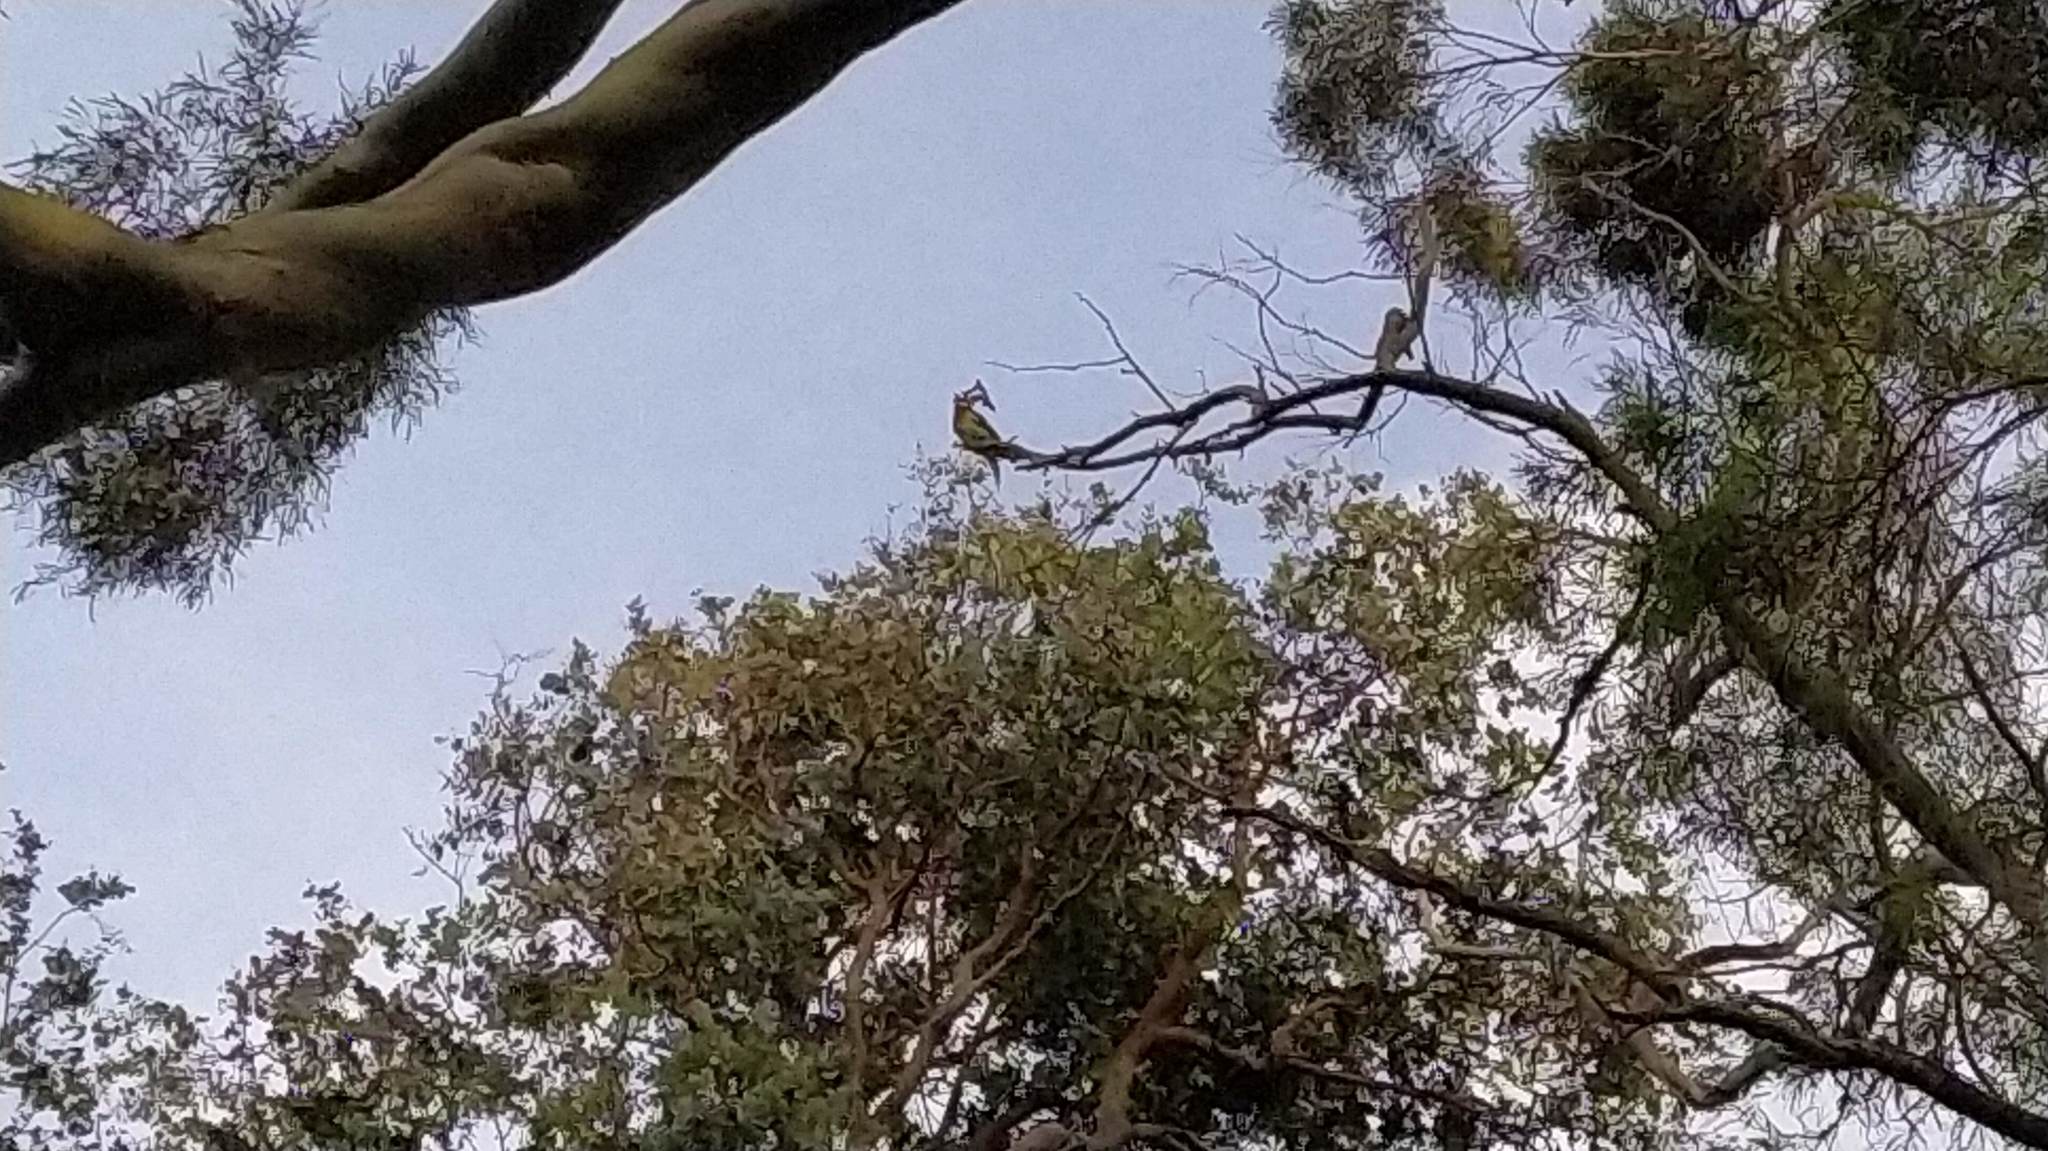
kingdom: Animalia
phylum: Chordata
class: Aves
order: Psittaciformes
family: Psittacidae
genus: Platycercus
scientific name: Platycercus eximius
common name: Eastern rosella
